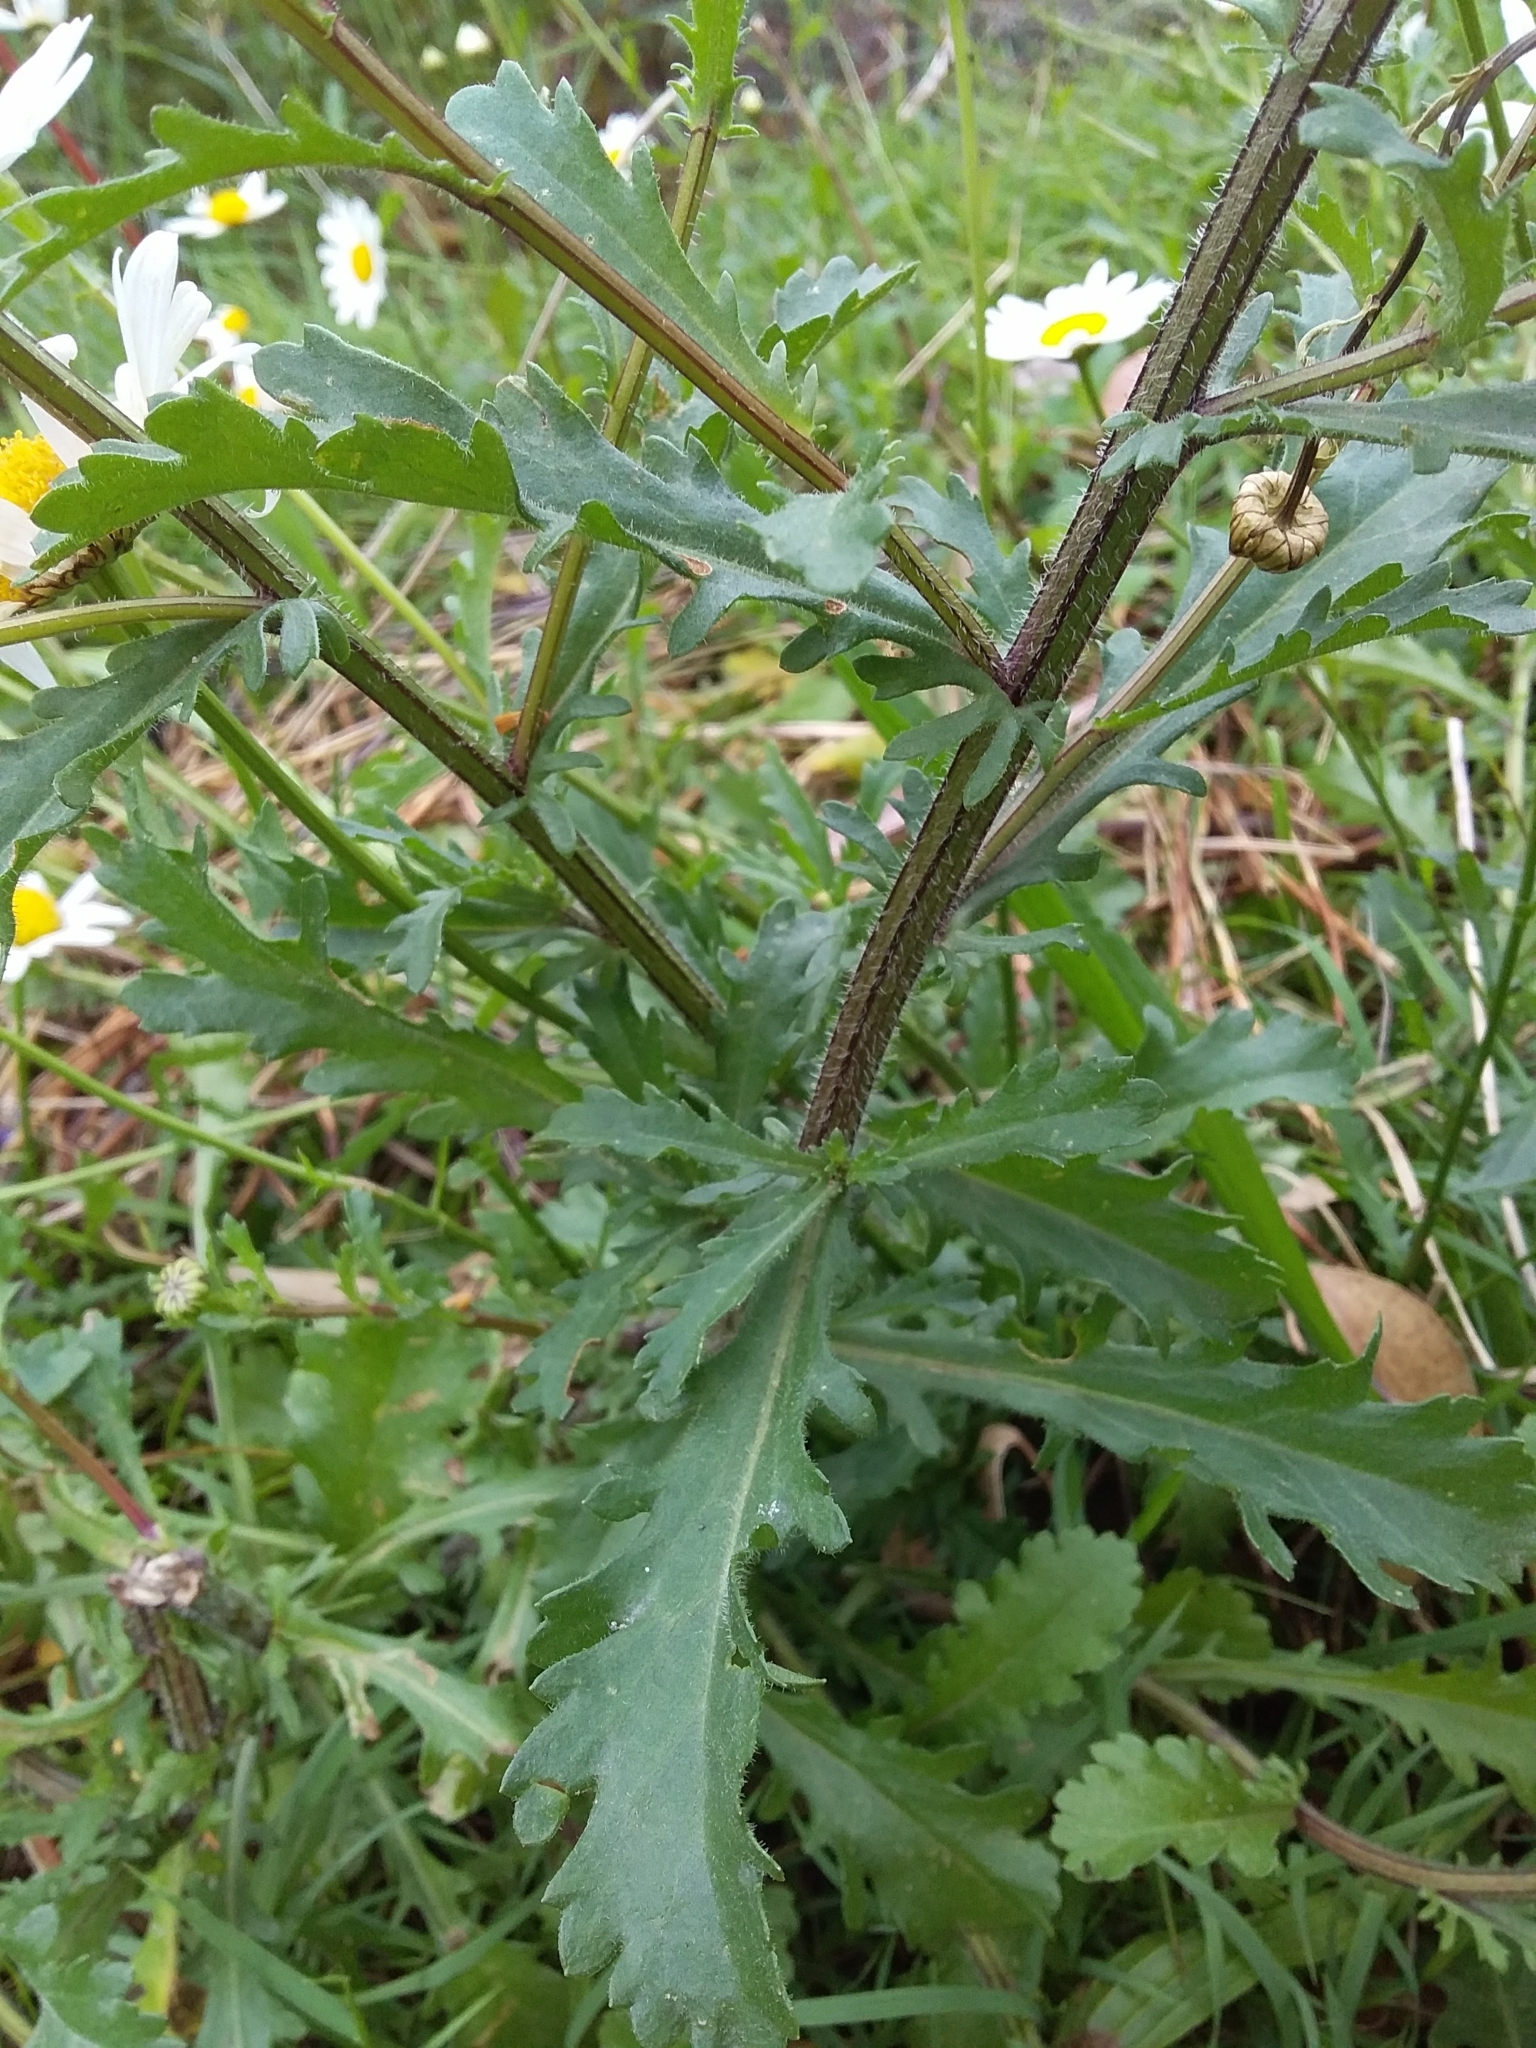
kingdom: Plantae
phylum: Tracheophyta
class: Magnoliopsida
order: Asterales
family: Asteraceae
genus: Leucanthemum
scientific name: Leucanthemum vulgare
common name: Oxeye daisy
